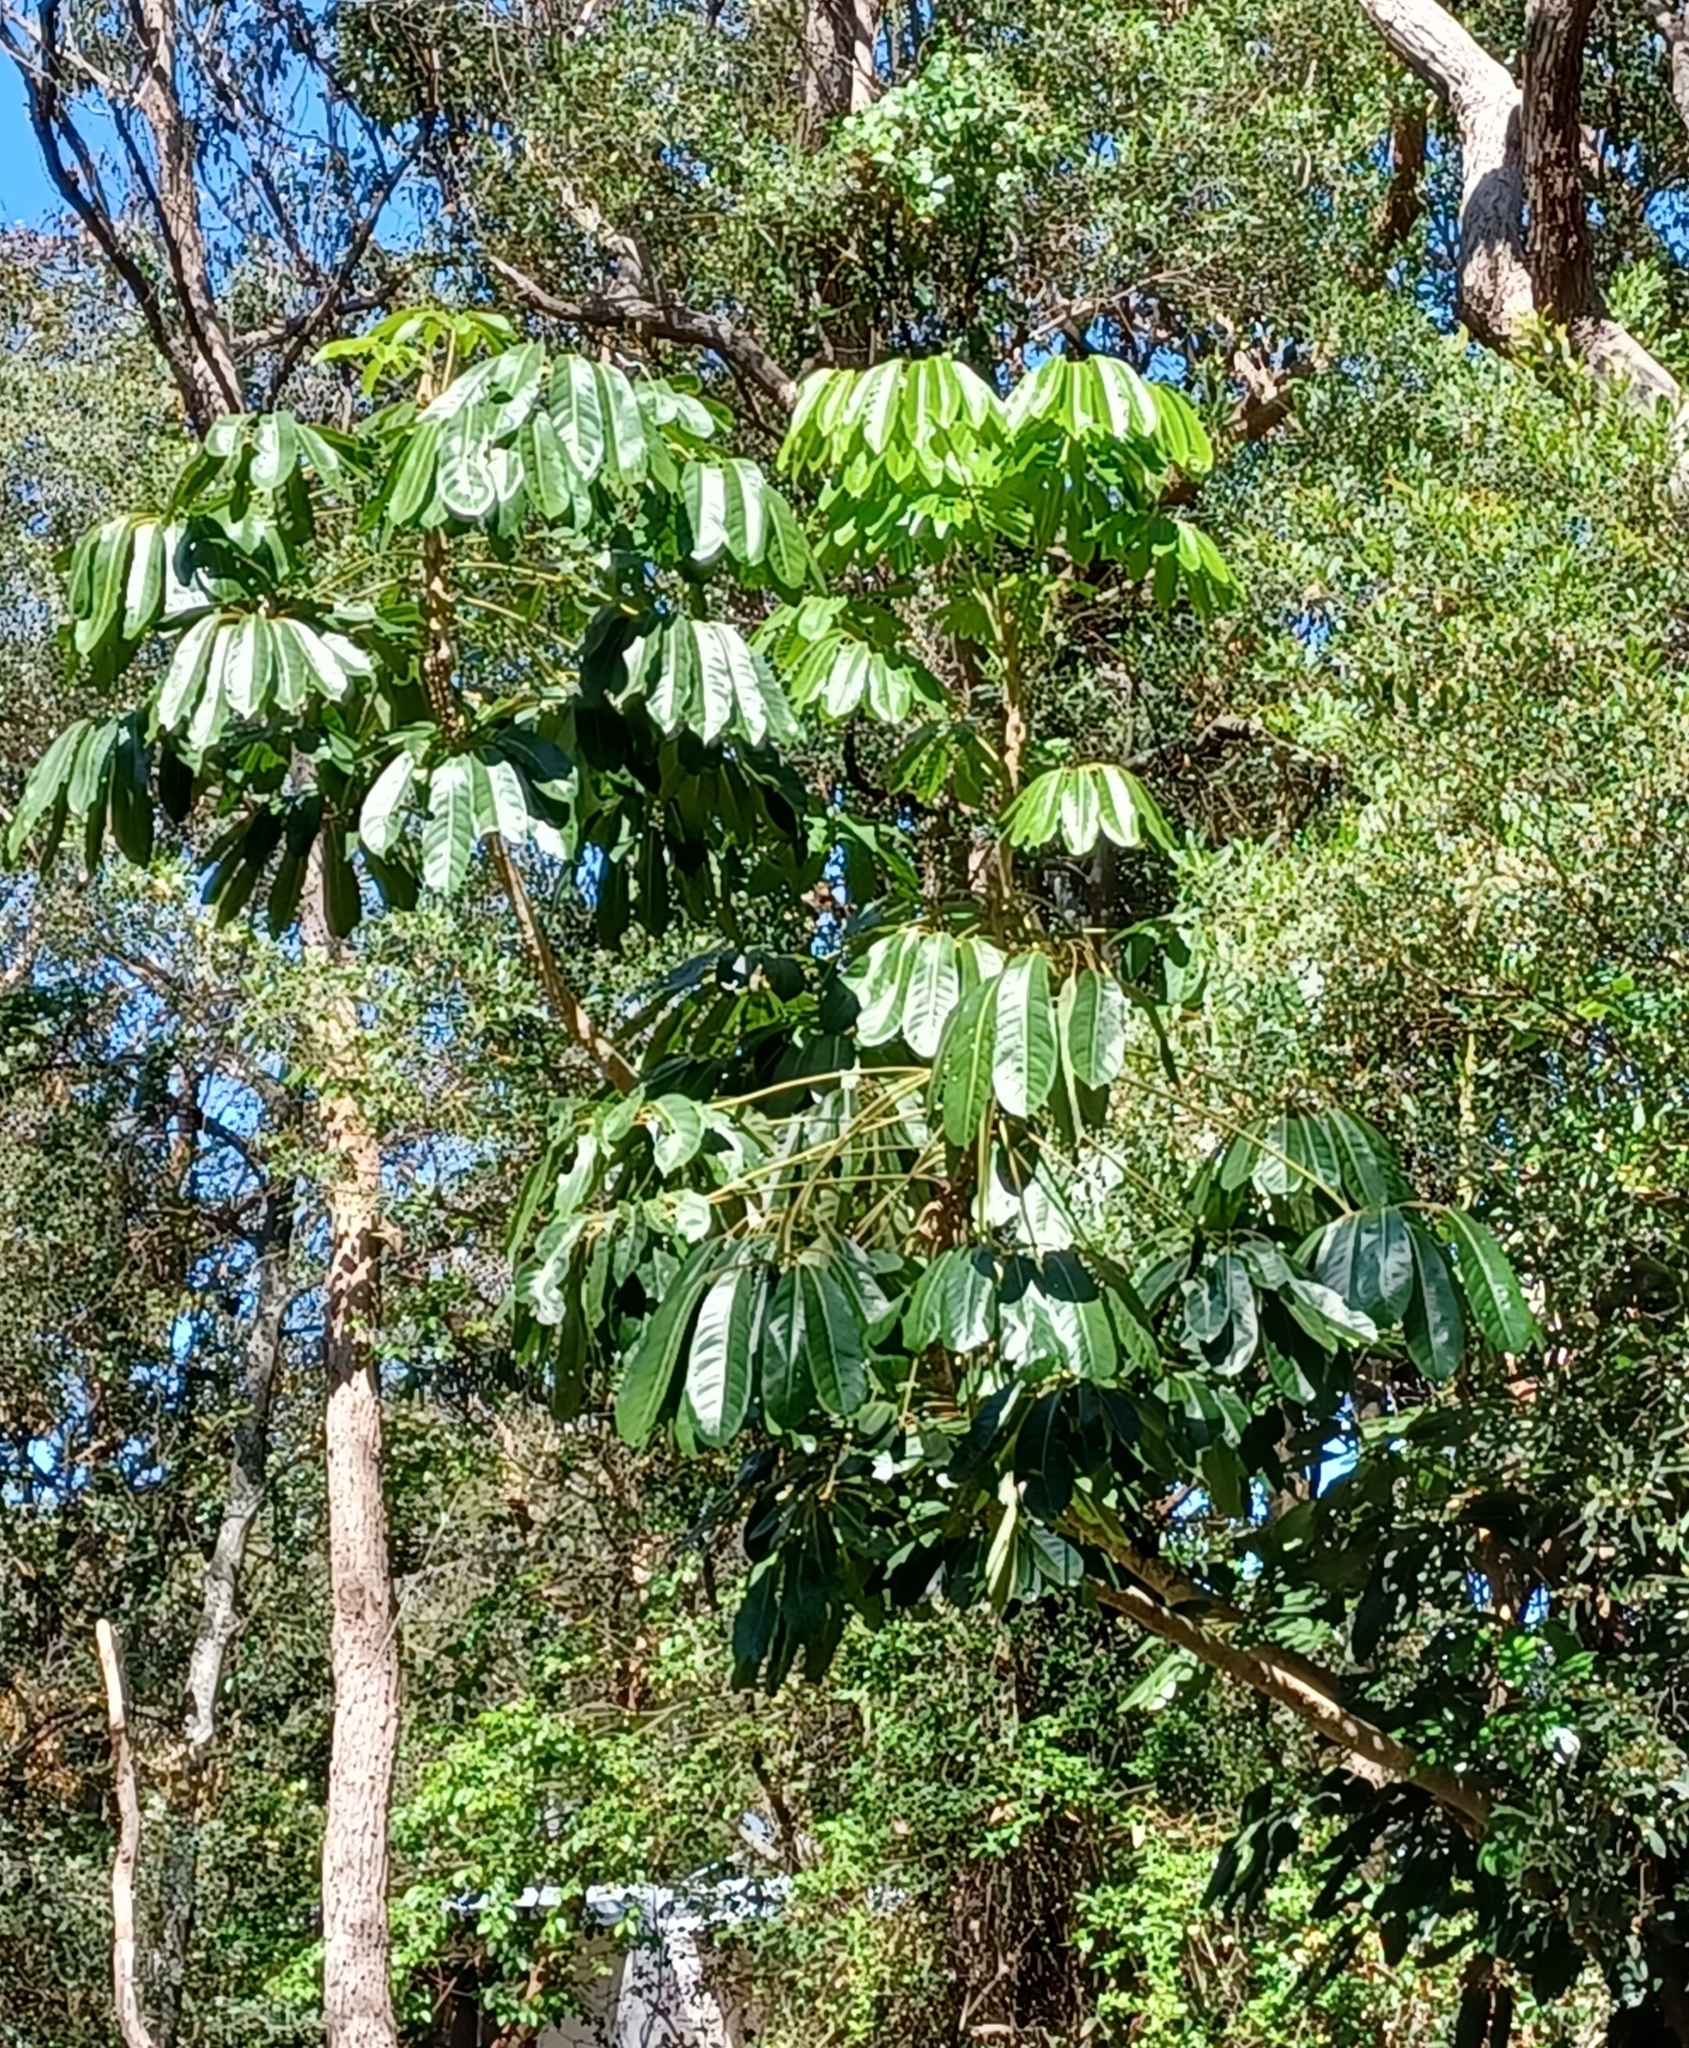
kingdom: Plantae
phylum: Tracheophyta
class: Magnoliopsida
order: Apiales
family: Araliaceae
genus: Heptapleurum
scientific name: Heptapleurum actinophyllum
